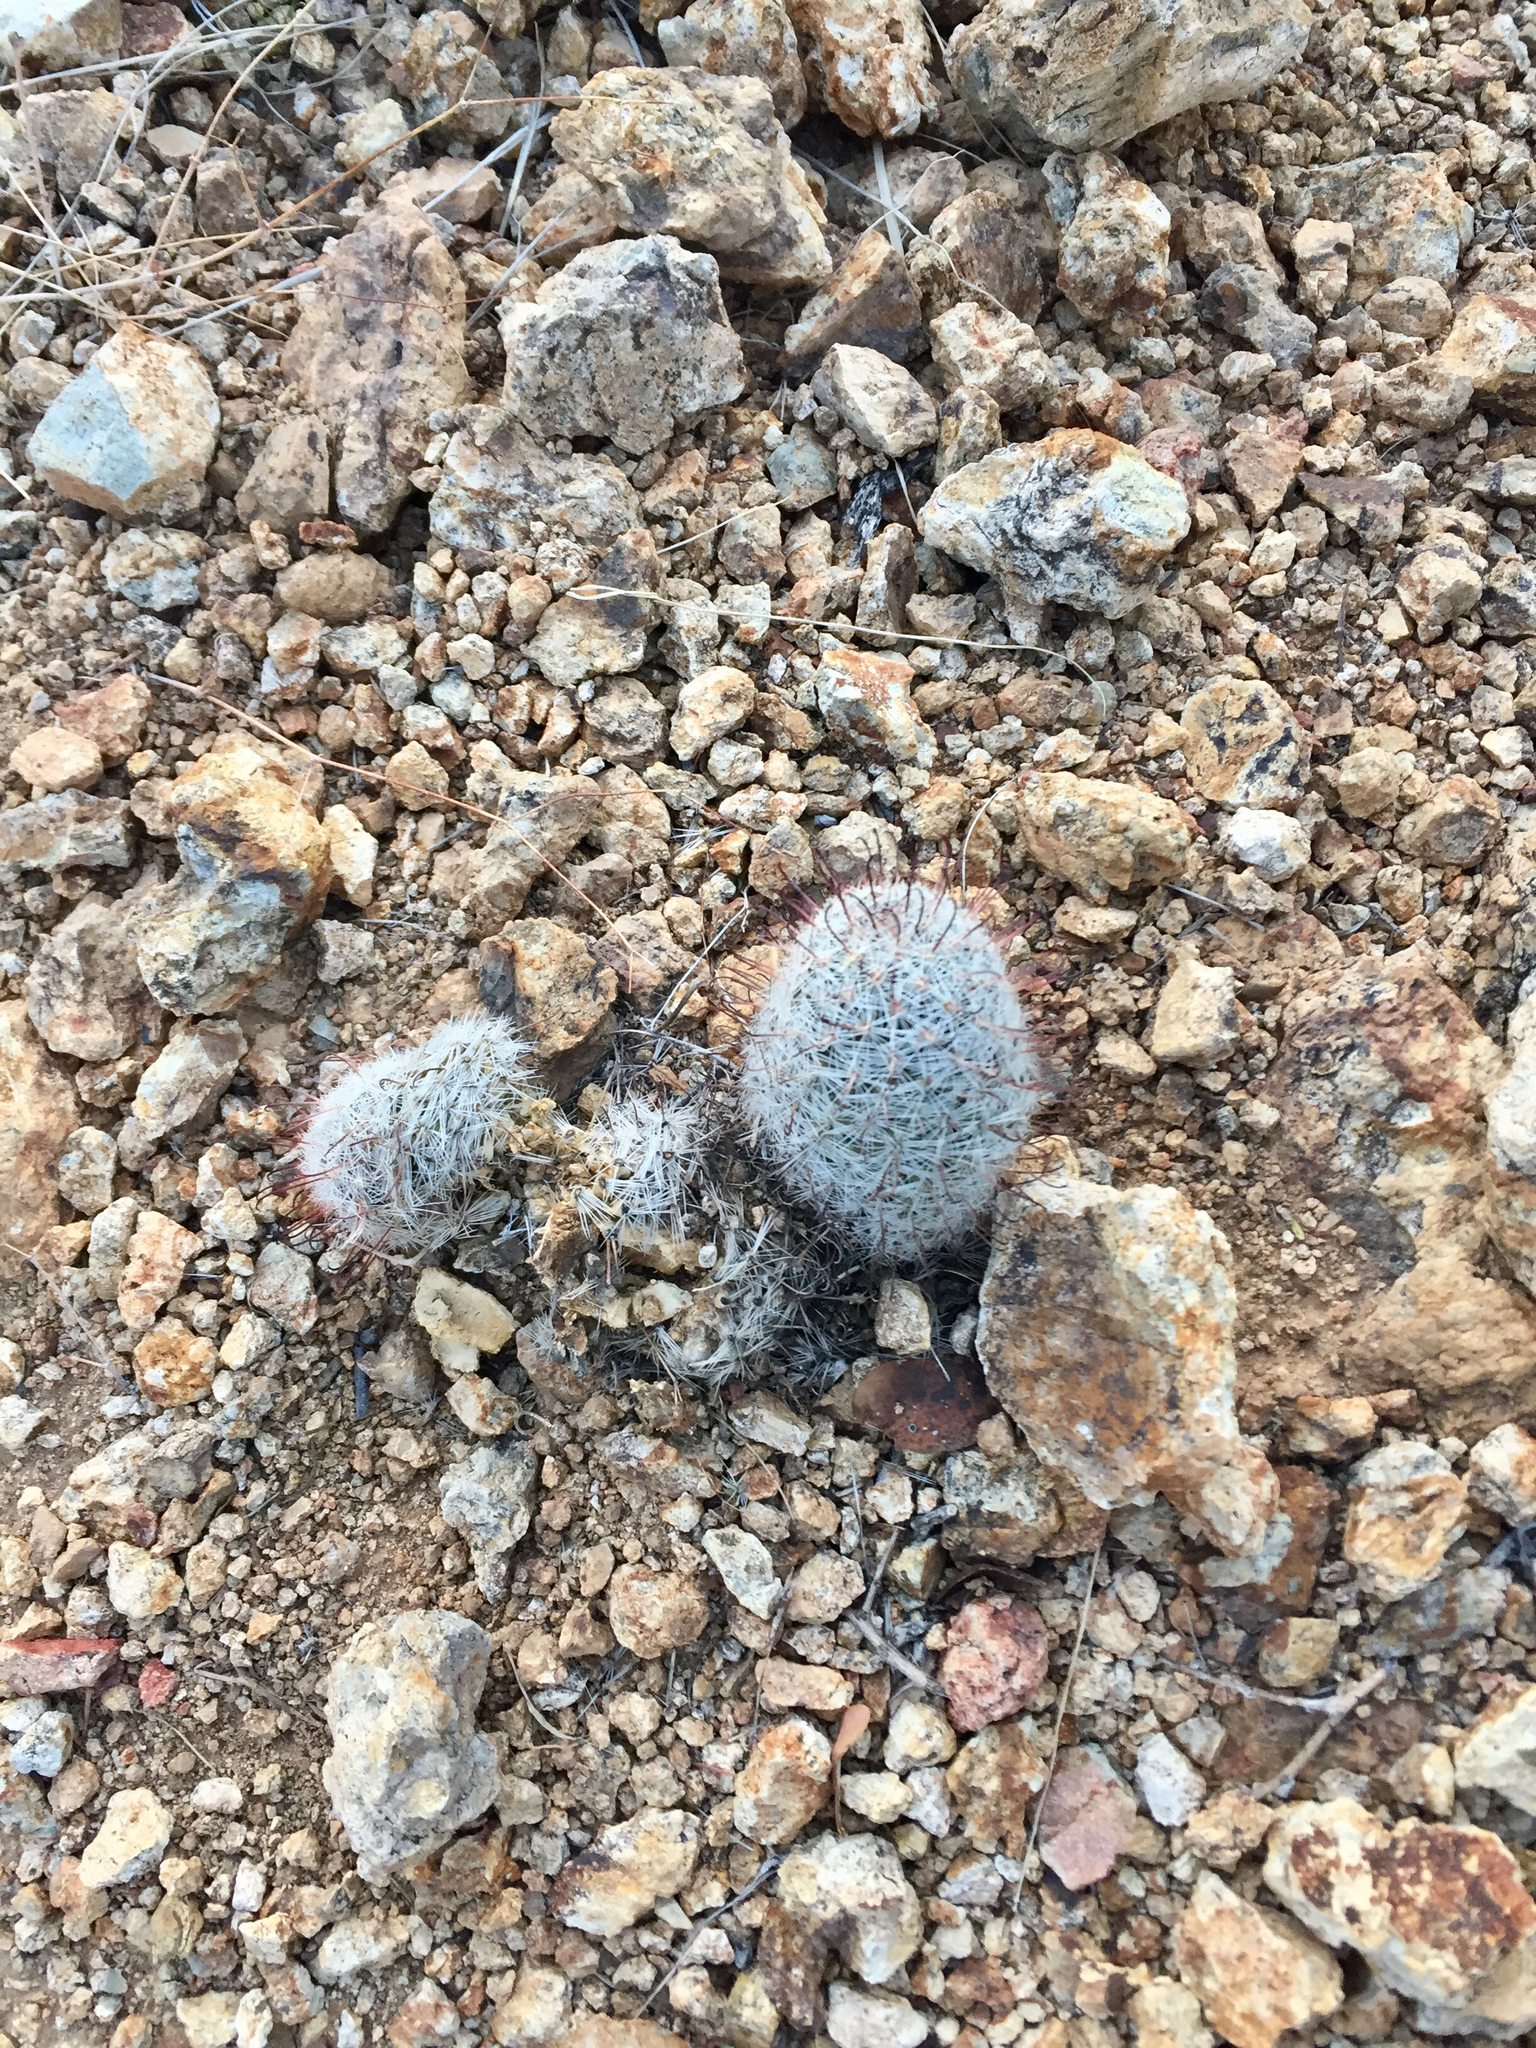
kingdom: Plantae
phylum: Tracheophyta
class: Magnoliopsida
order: Caryophyllales
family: Cactaceae
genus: Cochemiea
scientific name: Cochemiea grahamii
